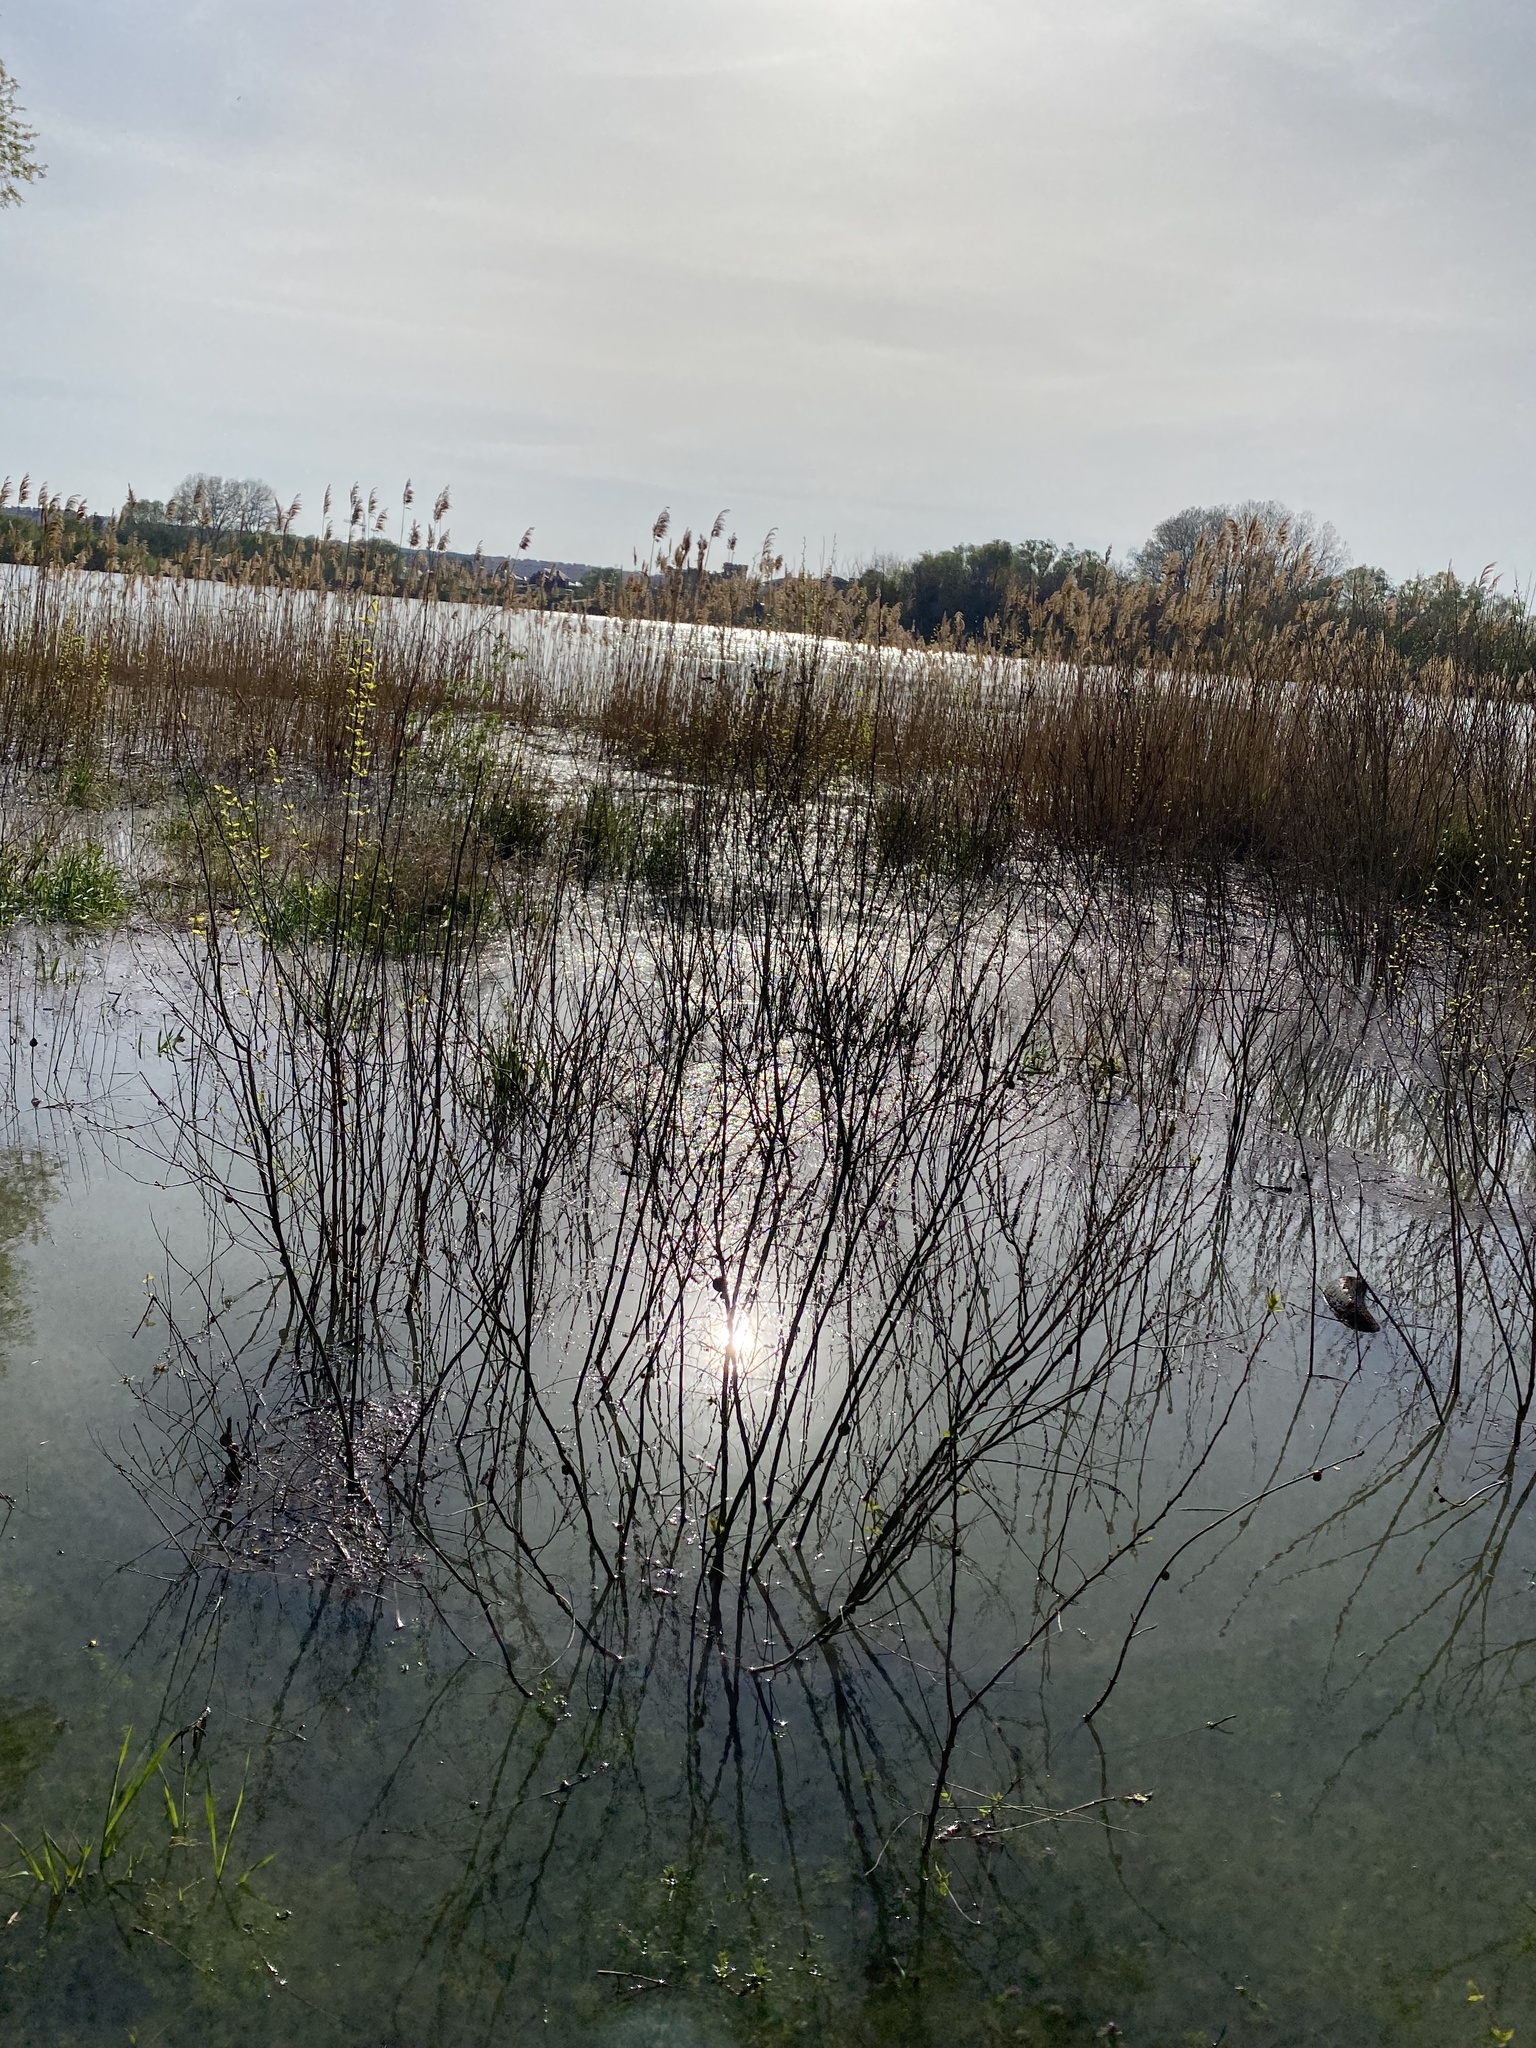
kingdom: Plantae
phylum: Tracheophyta
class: Liliopsida
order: Poales
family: Poaceae
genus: Phragmites
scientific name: Phragmites australis
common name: Common reed
